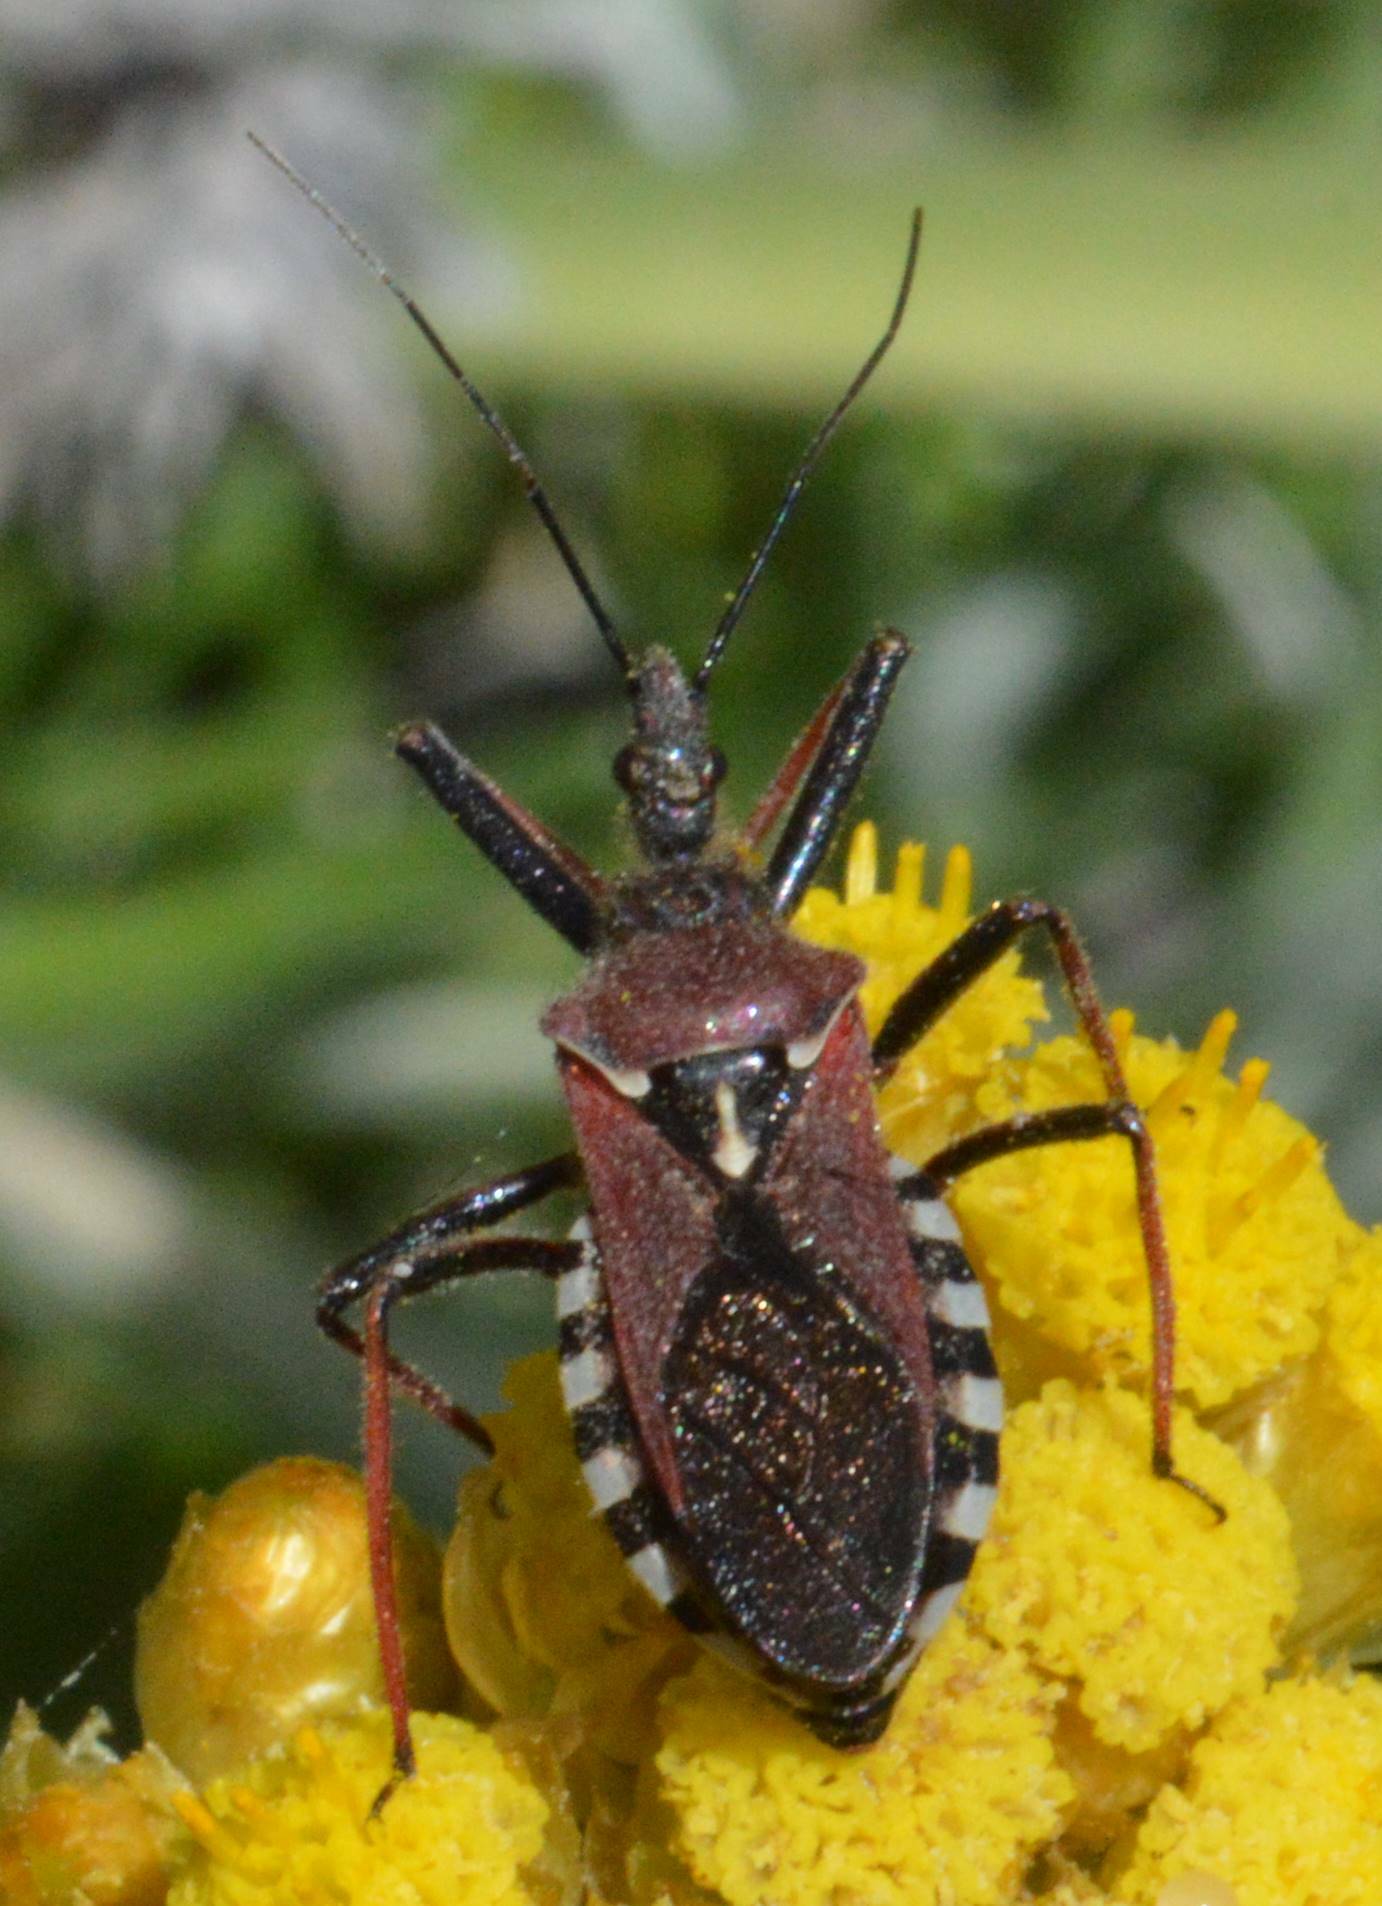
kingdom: Animalia
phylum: Arthropoda
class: Insecta
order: Hemiptera
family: Reduviidae
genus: Rhynocoris
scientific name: Rhynocoris erythropus
